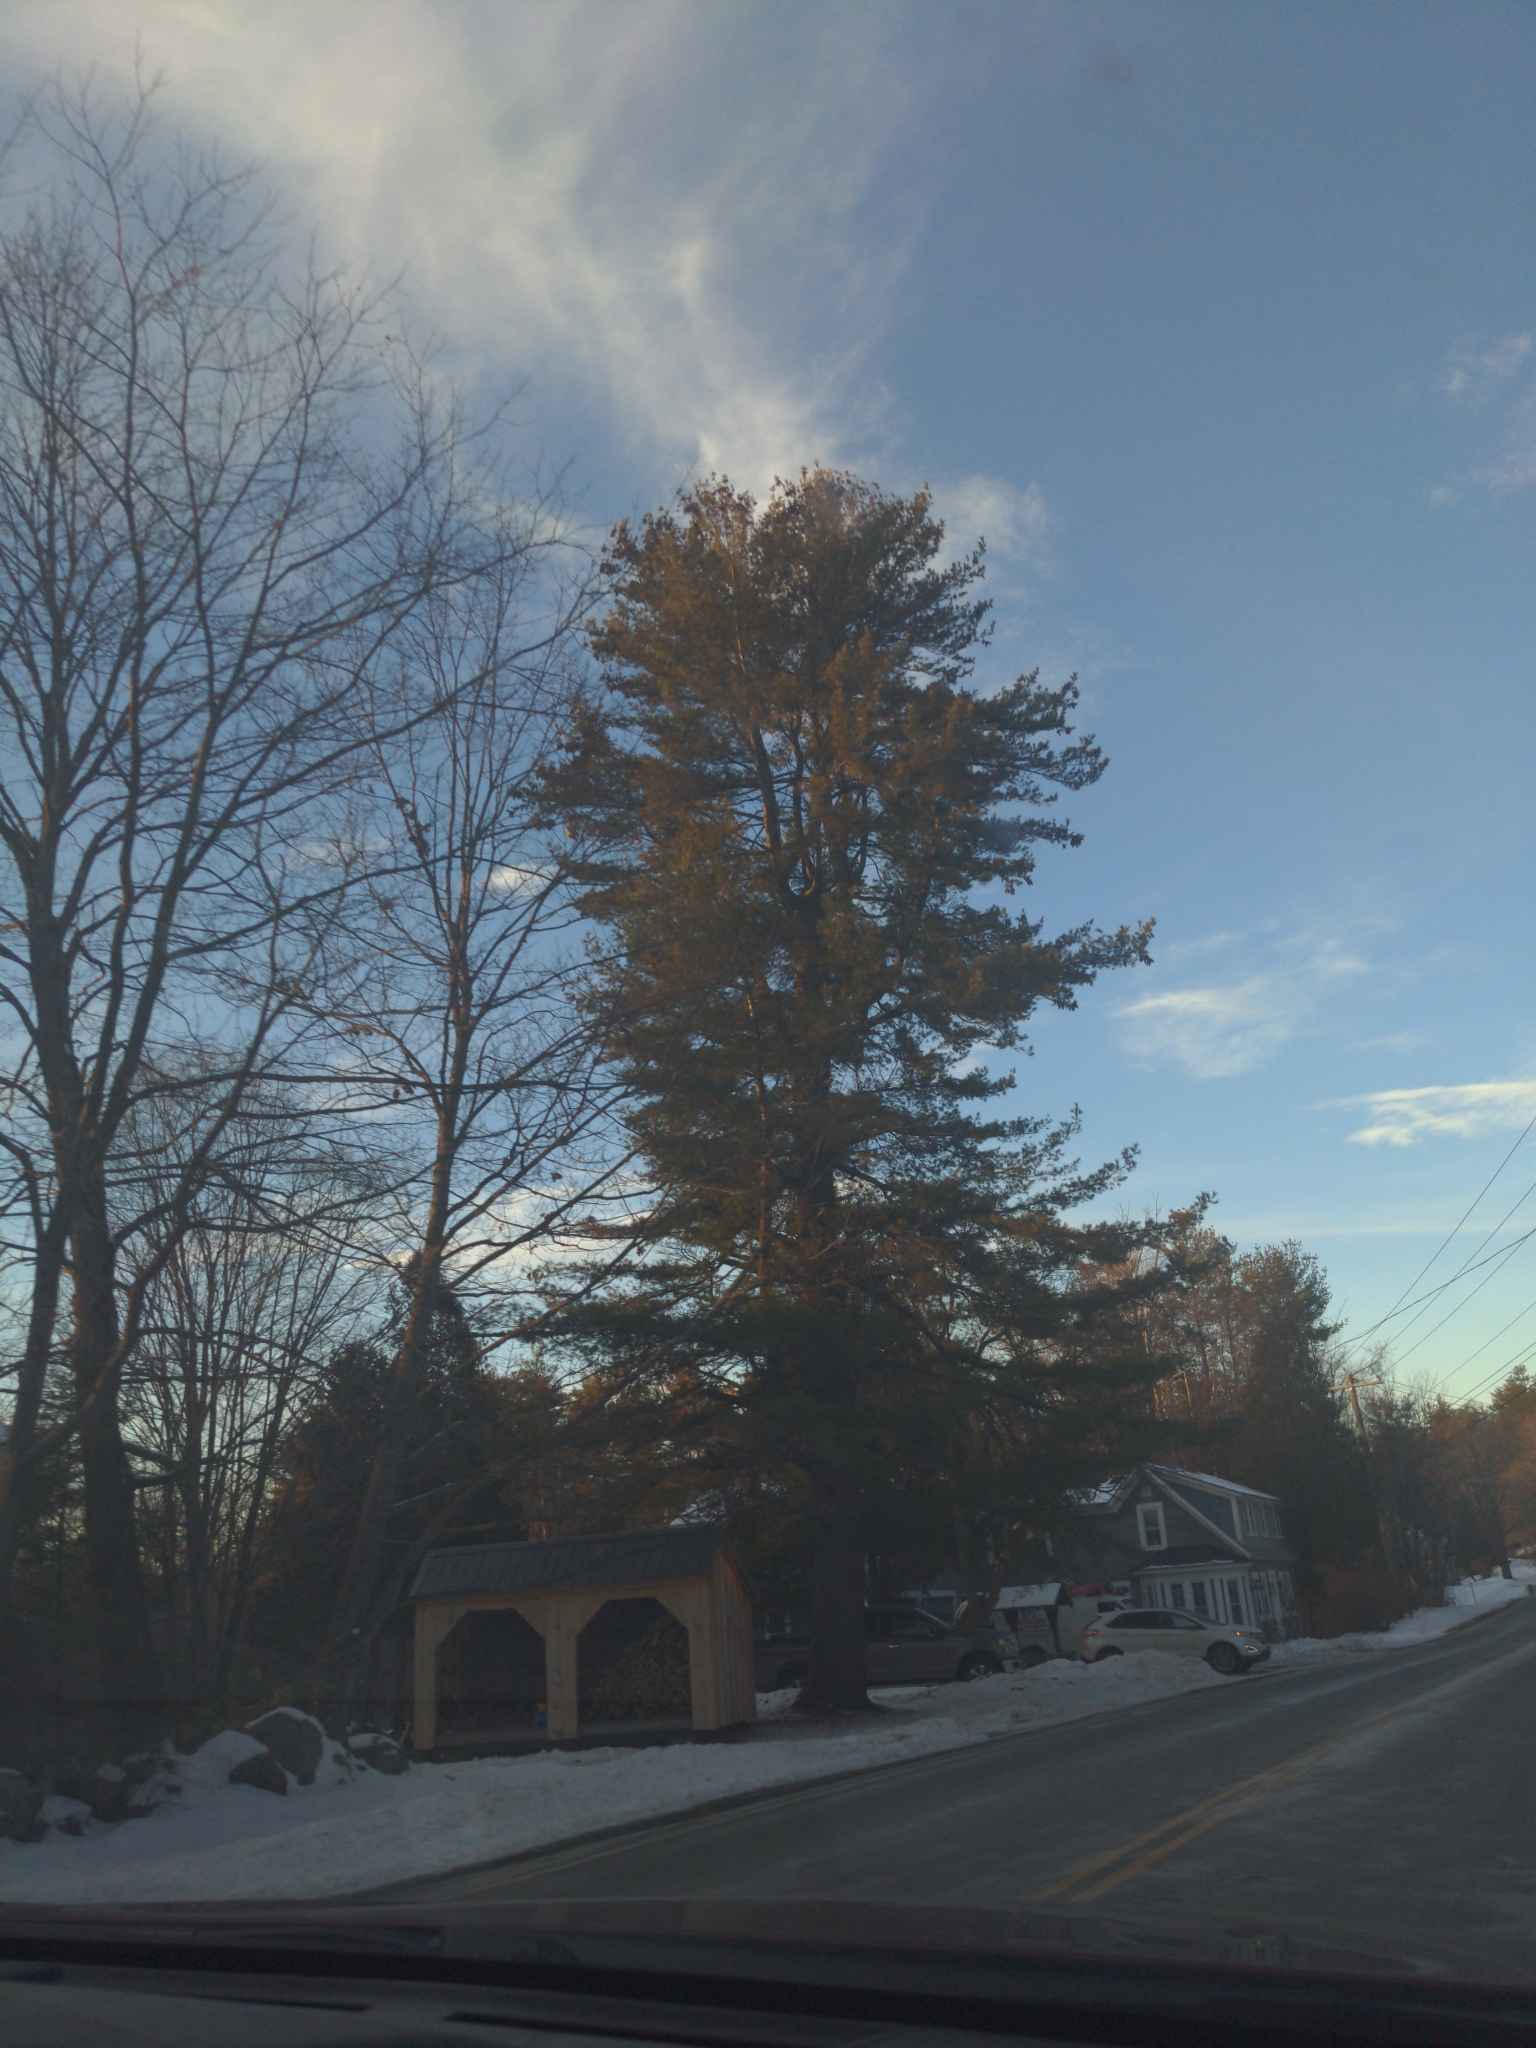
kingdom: Plantae
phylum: Tracheophyta
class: Pinopsida
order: Pinales
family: Pinaceae
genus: Pinus
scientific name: Pinus strobus
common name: Weymouth pine
